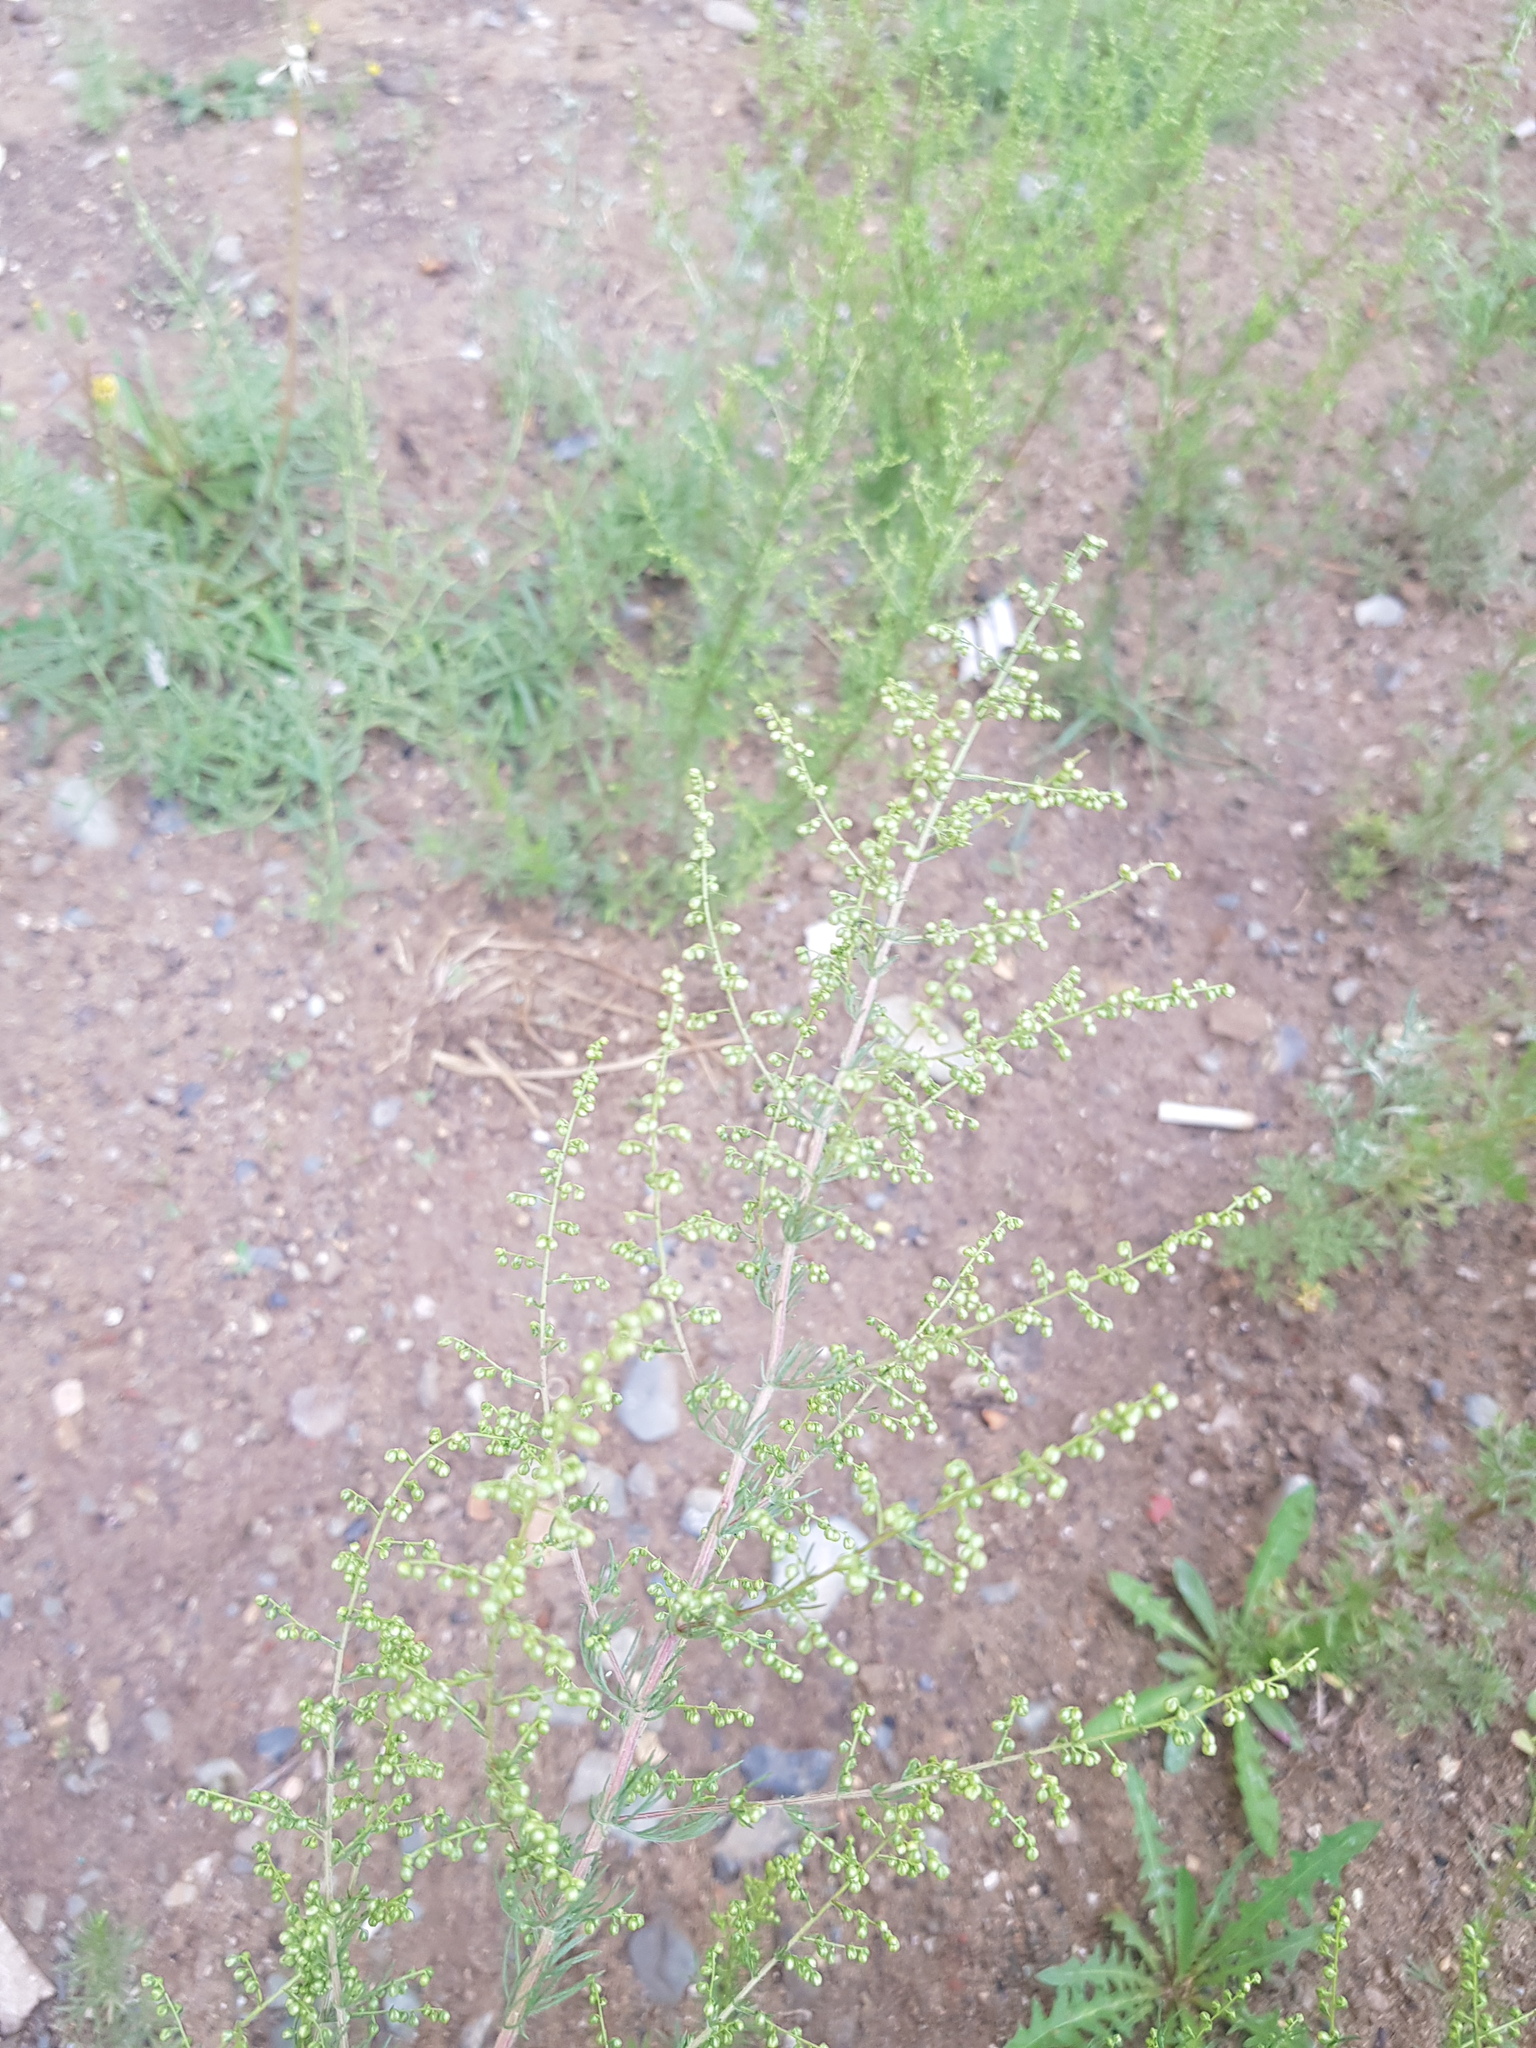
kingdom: Plantae
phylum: Tracheophyta
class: Magnoliopsida
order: Asterales
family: Asteraceae
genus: Artemisia
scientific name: Artemisia scoparia
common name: Redstem wormwood
